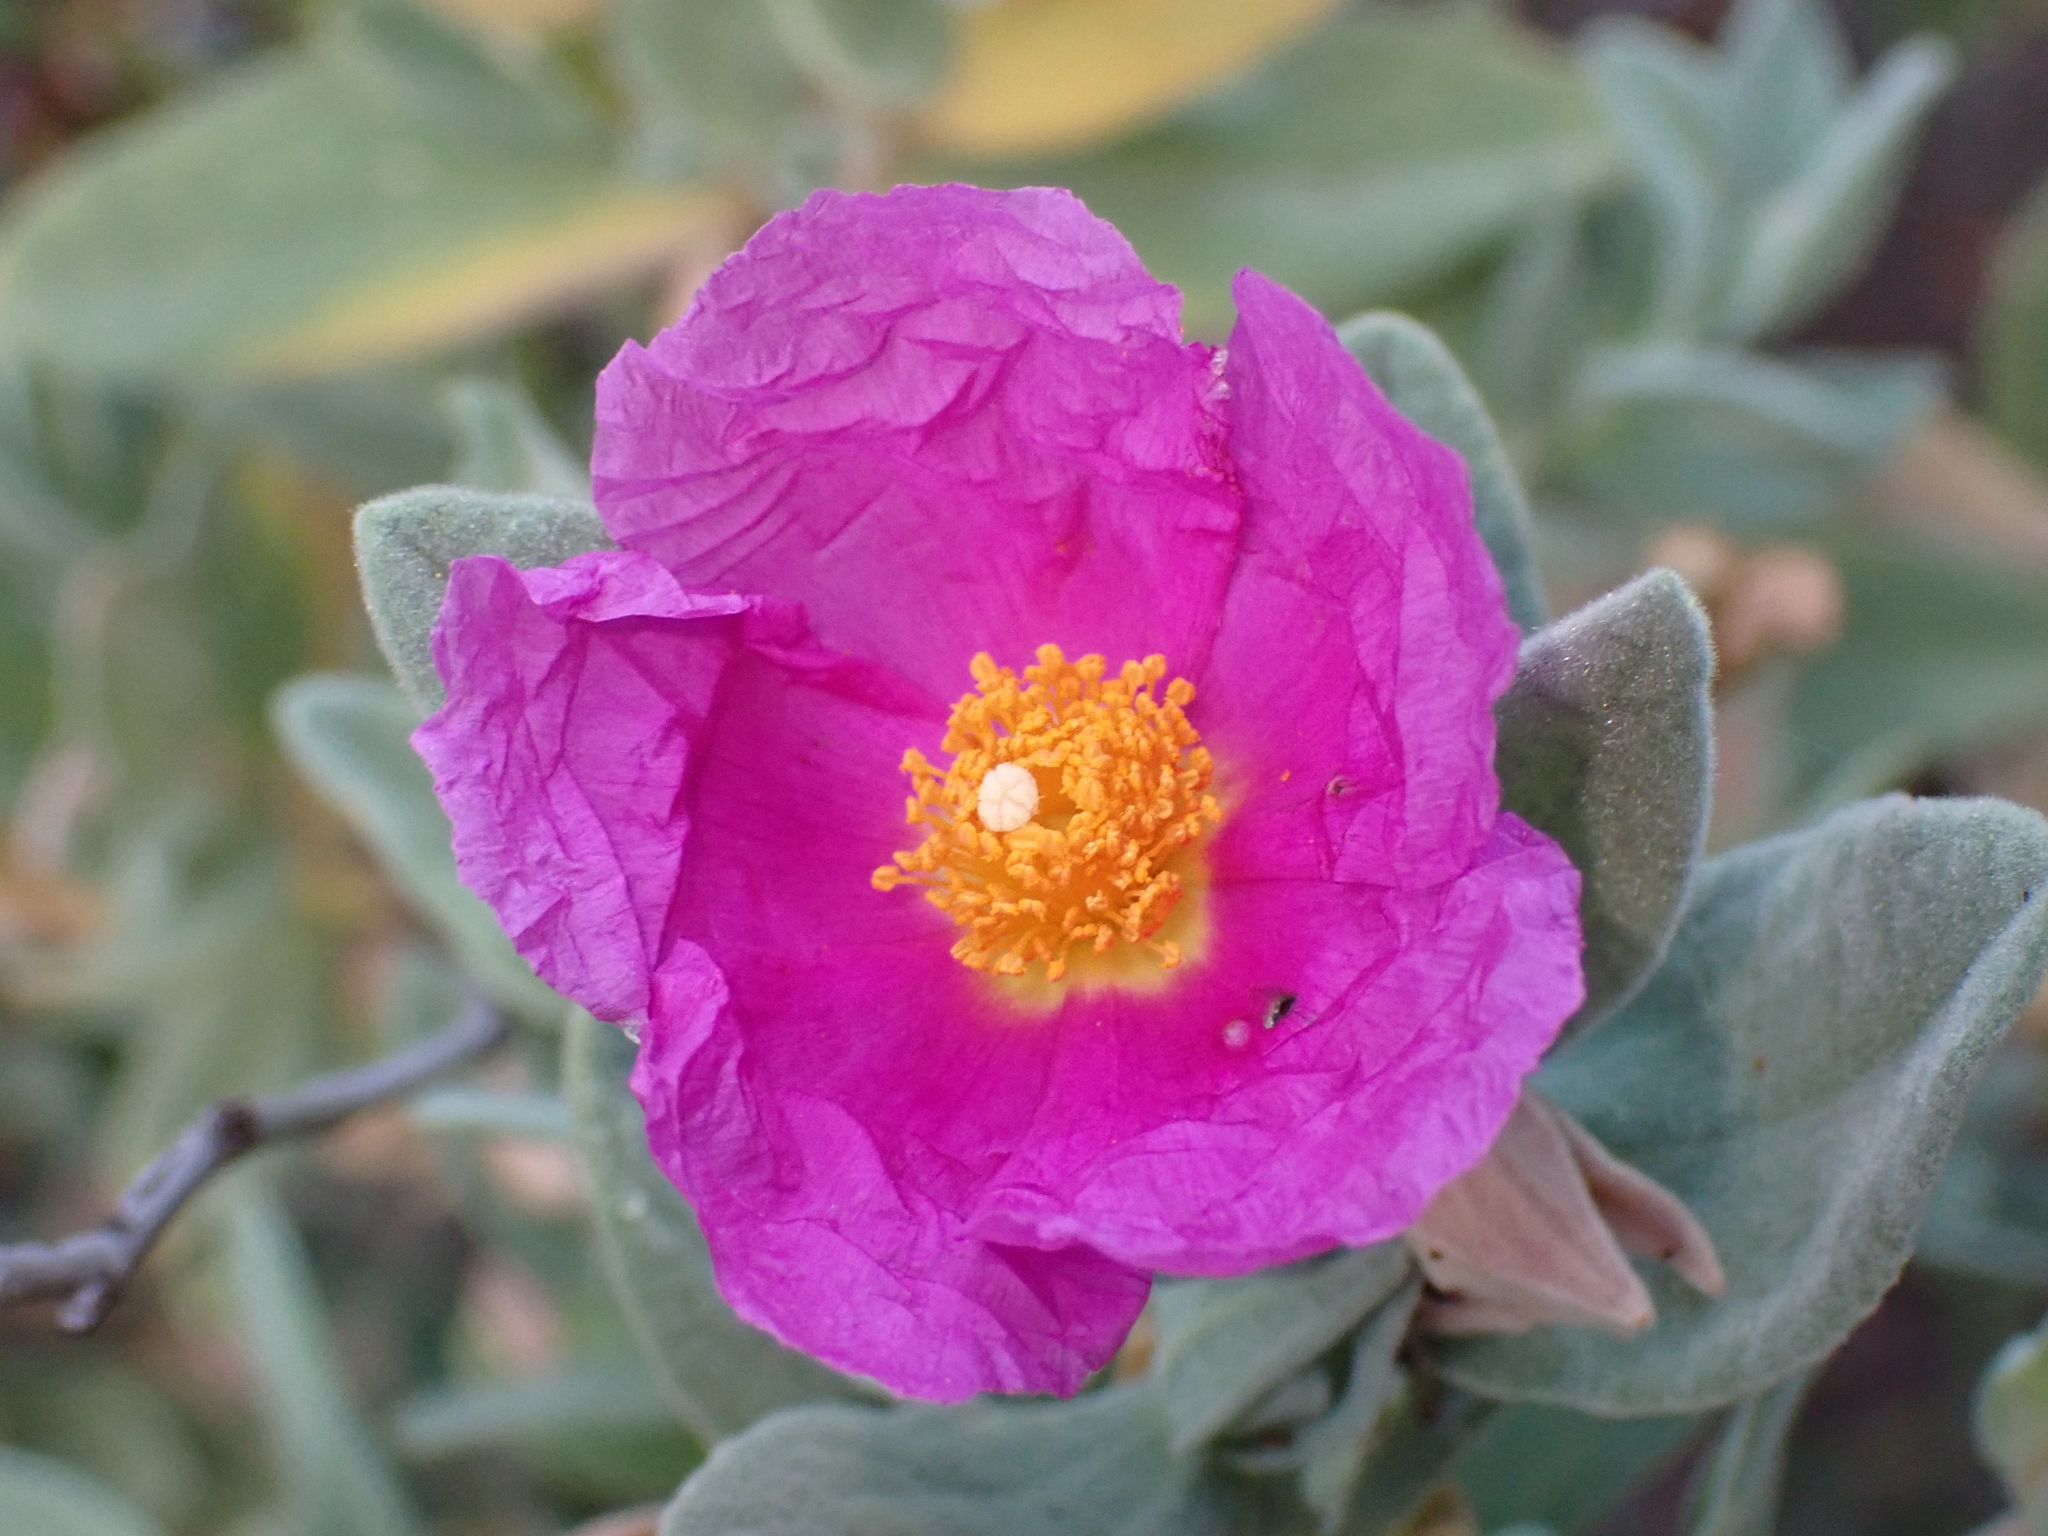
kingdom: Plantae
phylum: Tracheophyta
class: Magnoliopsida
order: Malvales
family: Cistaceae
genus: Cistus
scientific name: Cistus albidus
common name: White-leaf rock-rose
